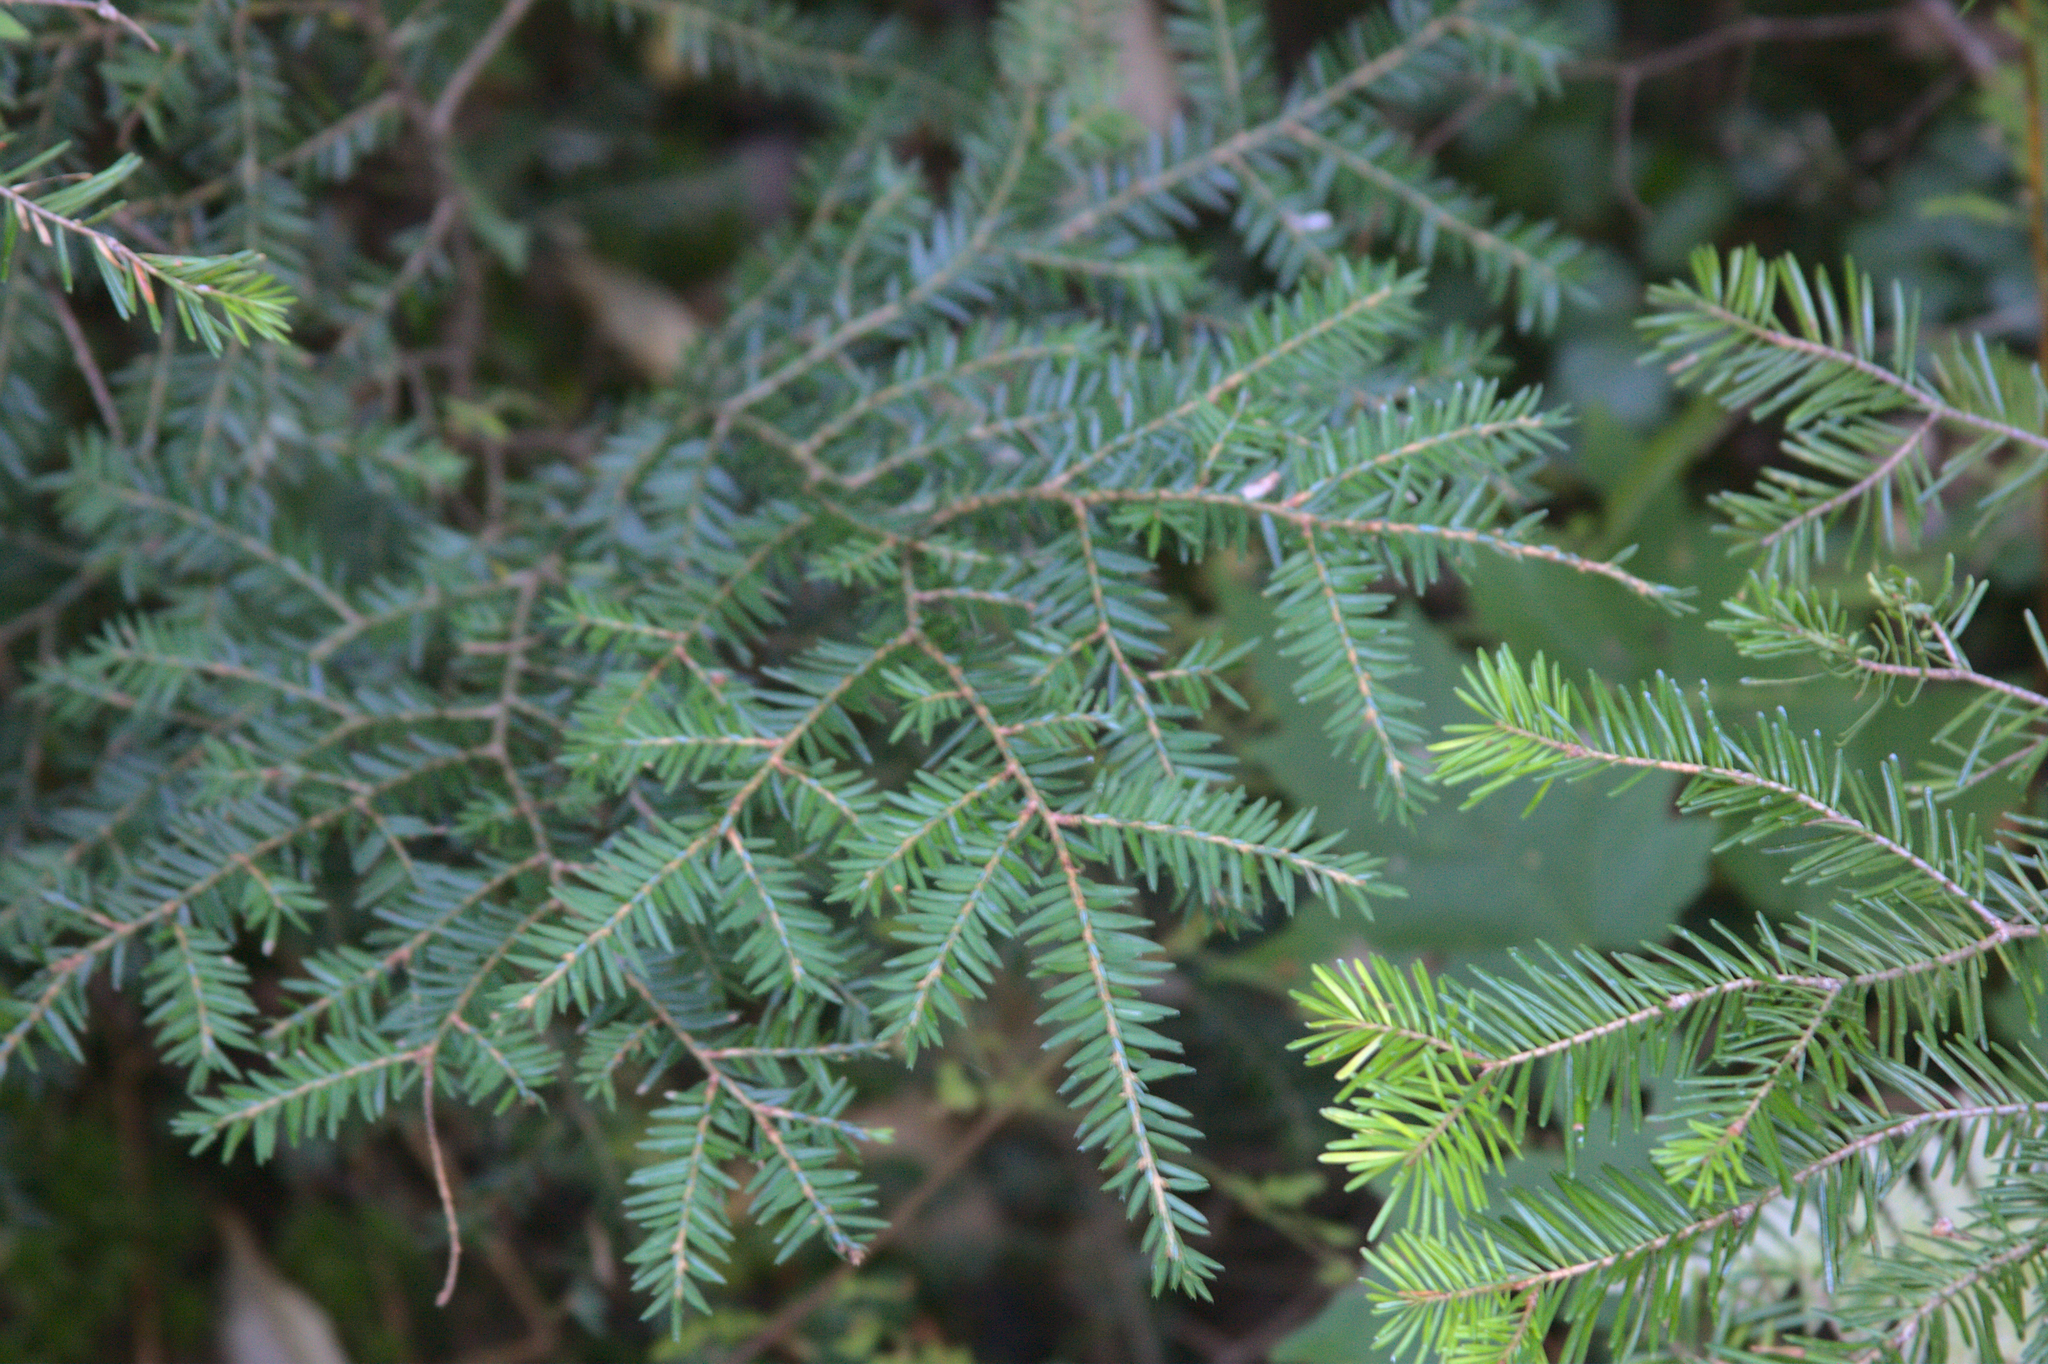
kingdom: Plantae
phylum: Tracheophyta
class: Pinopsida
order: Pinales
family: Pinaceae
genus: Tsuga
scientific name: Tsuga canadensis
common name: Eastern hemlock
